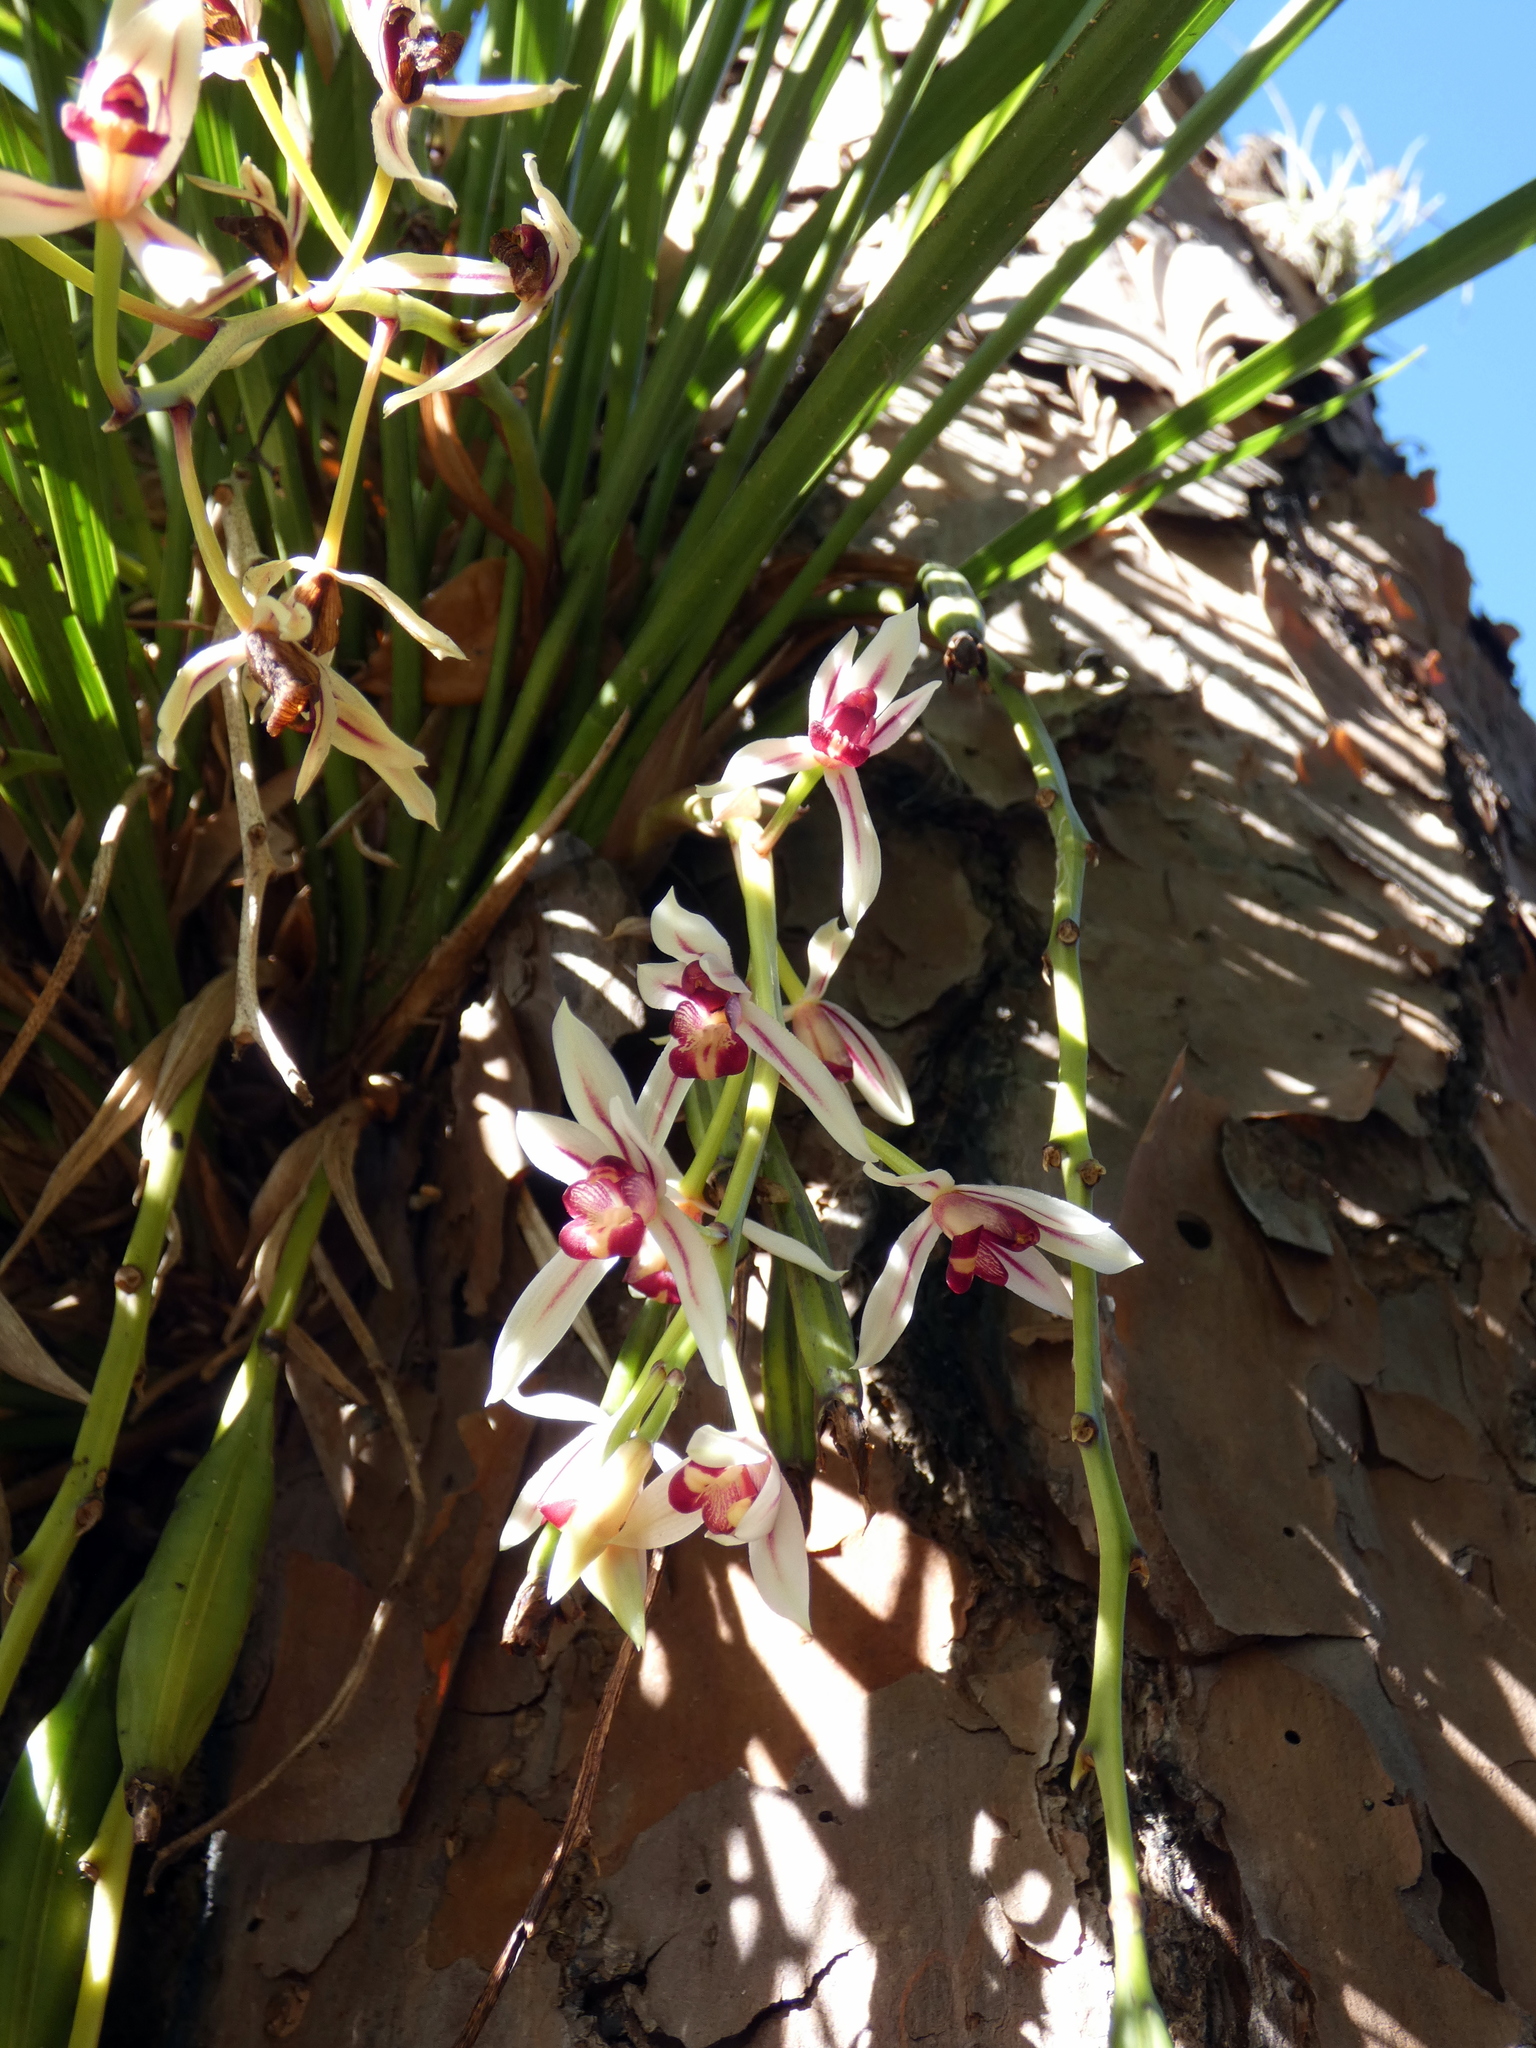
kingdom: Plantae
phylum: Tracheophyta
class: Liliopsida
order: Asparagales
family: Orchidaceae
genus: Cymbidium
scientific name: Cymbidium dayanum
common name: Orchid
